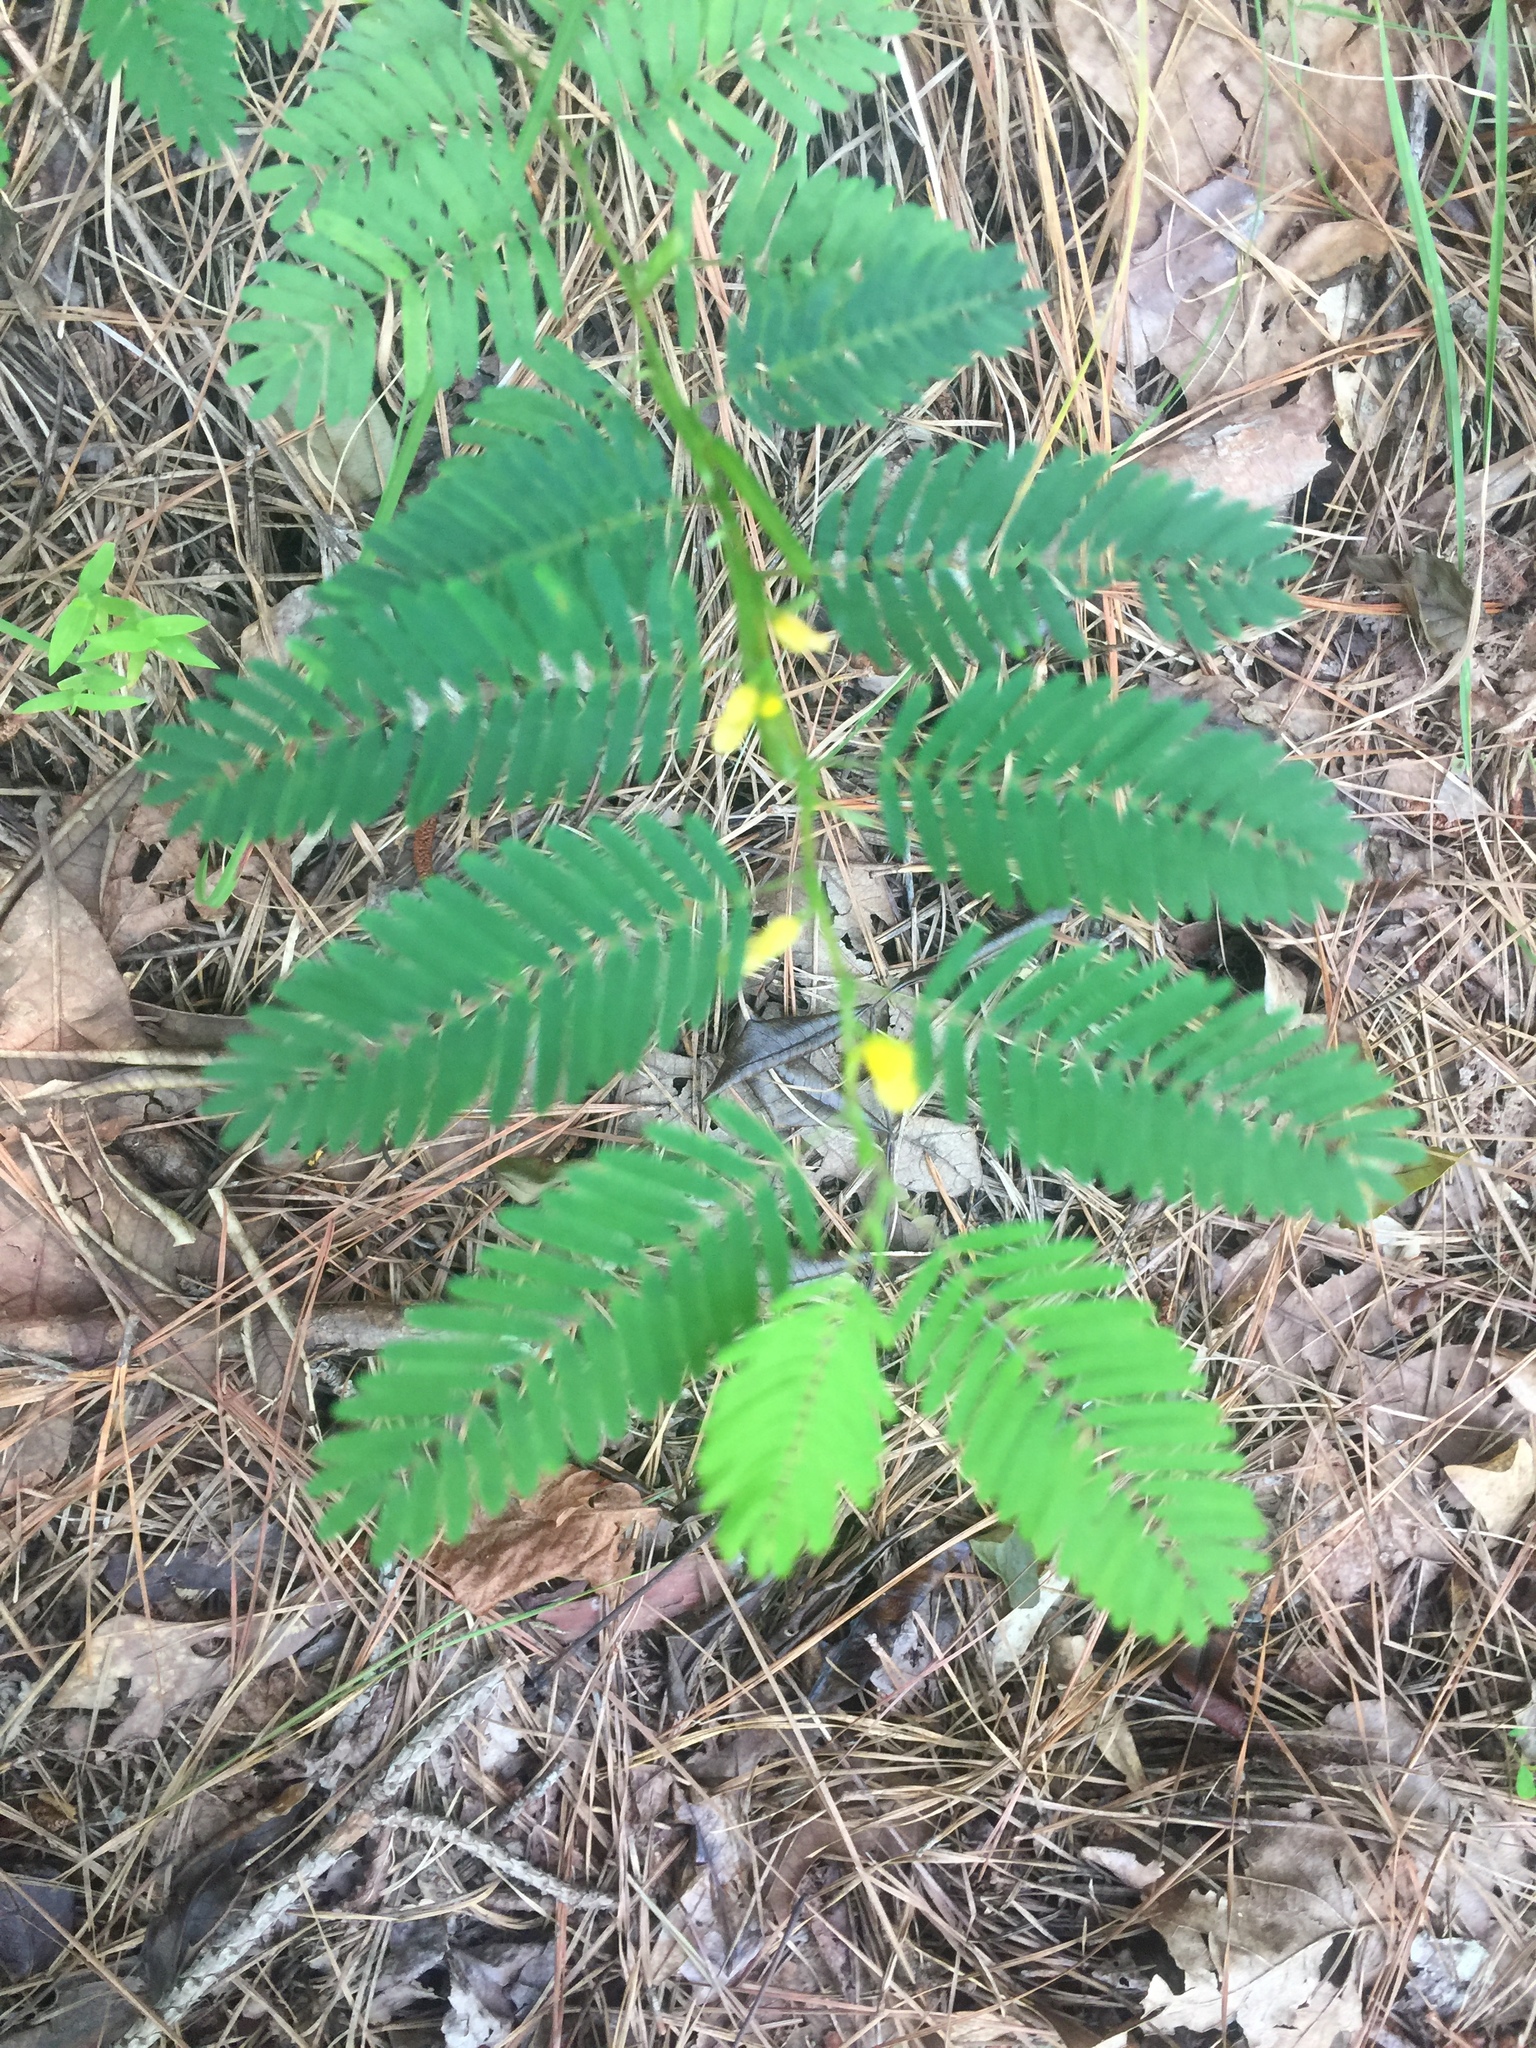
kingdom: Plantae
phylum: Tracheophyta
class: Magnoliopsida
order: Fabales
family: Fabaceae
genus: Chamaecrista
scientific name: Chamaecrista nictitans
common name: Sensitive cassia
